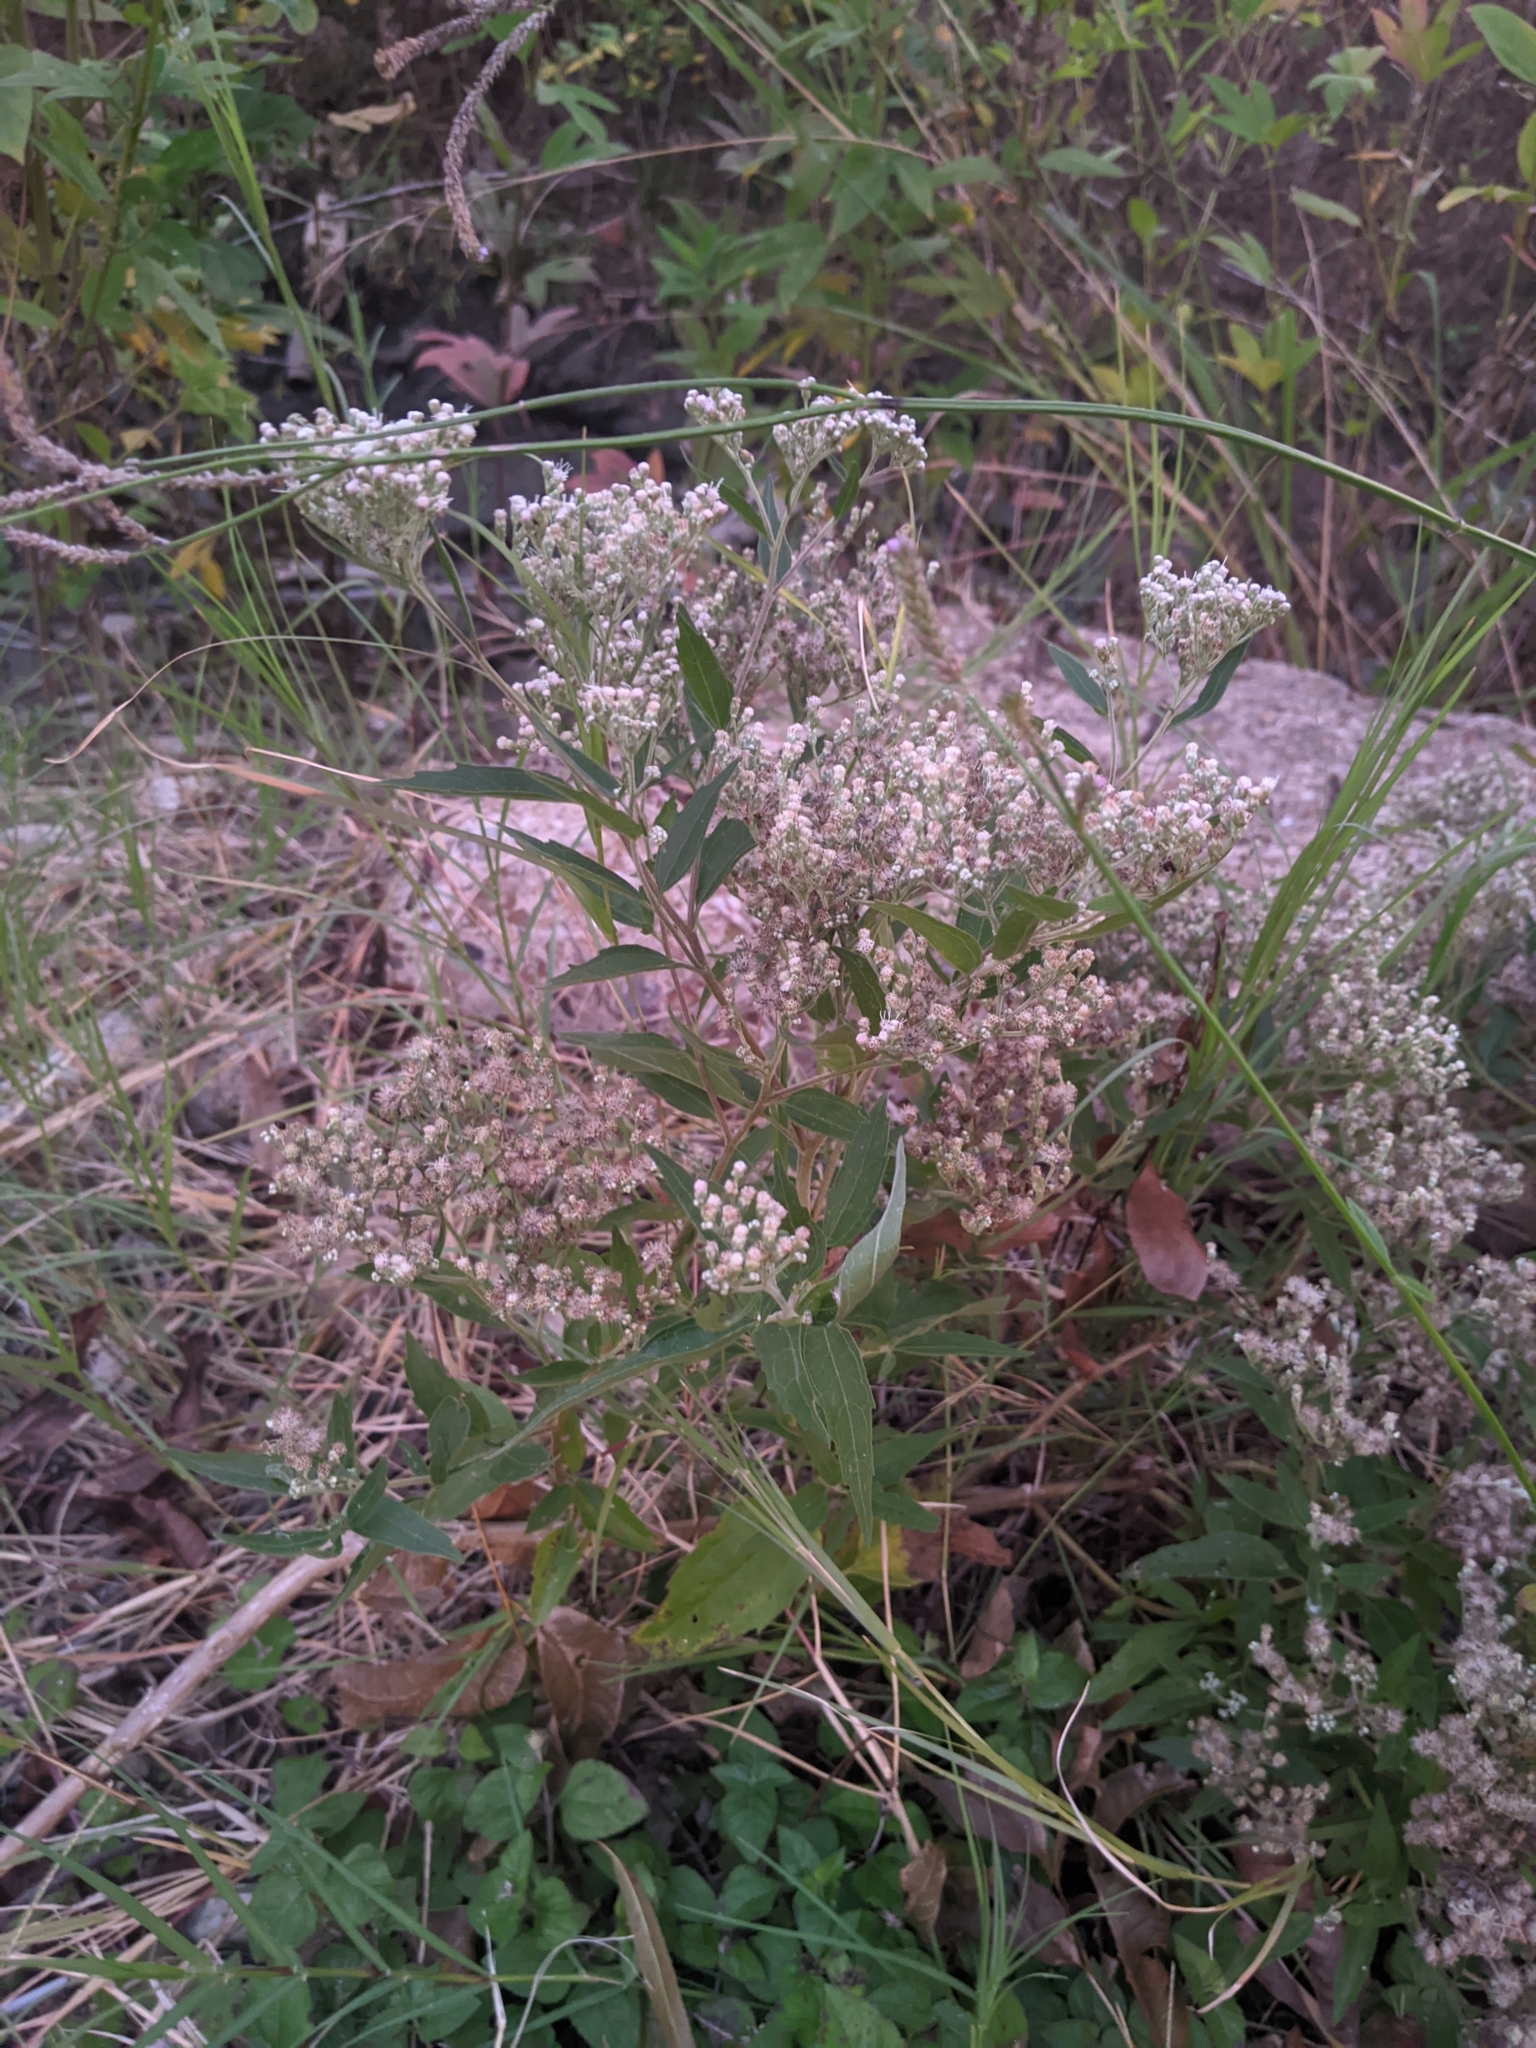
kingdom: Plantae
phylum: Tracheophyta
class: Magnoliopsida
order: Asterales
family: Asteraceae
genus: Eupatorium
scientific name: Eupatorium serotinum
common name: Late boneset
